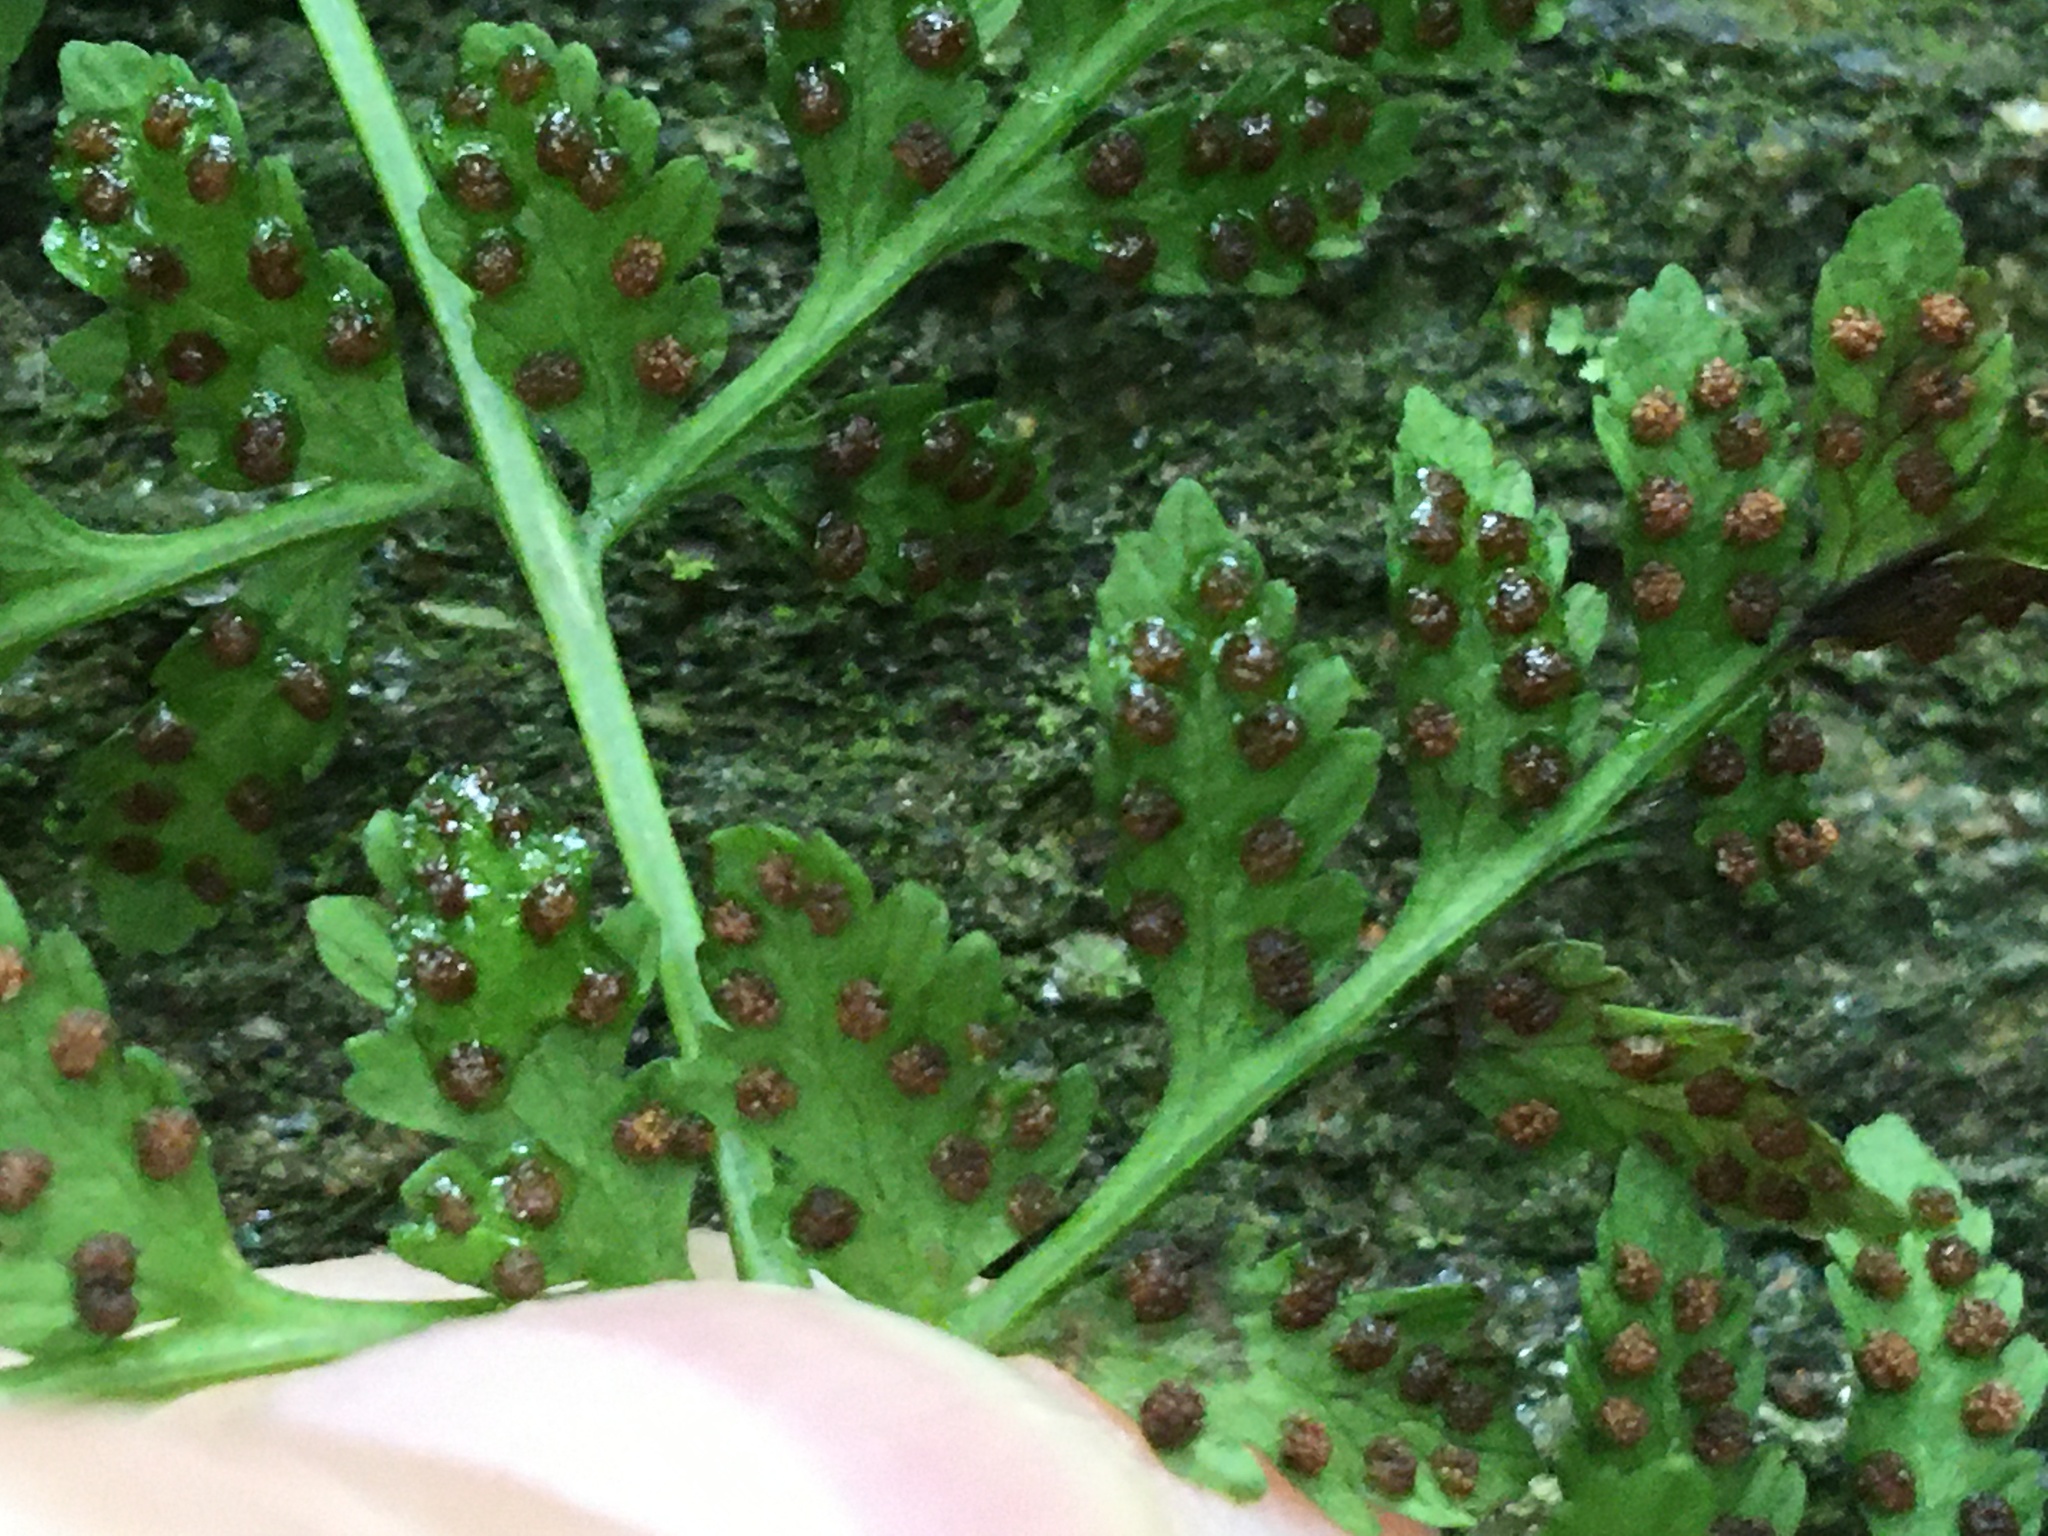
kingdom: Plantae
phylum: Tracheophyta
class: Polypodiopsida
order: Polypodiales
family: Cystopteridaceae
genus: Cystopteris
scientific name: Cystopteris fragilis
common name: Brittle bladder fern
